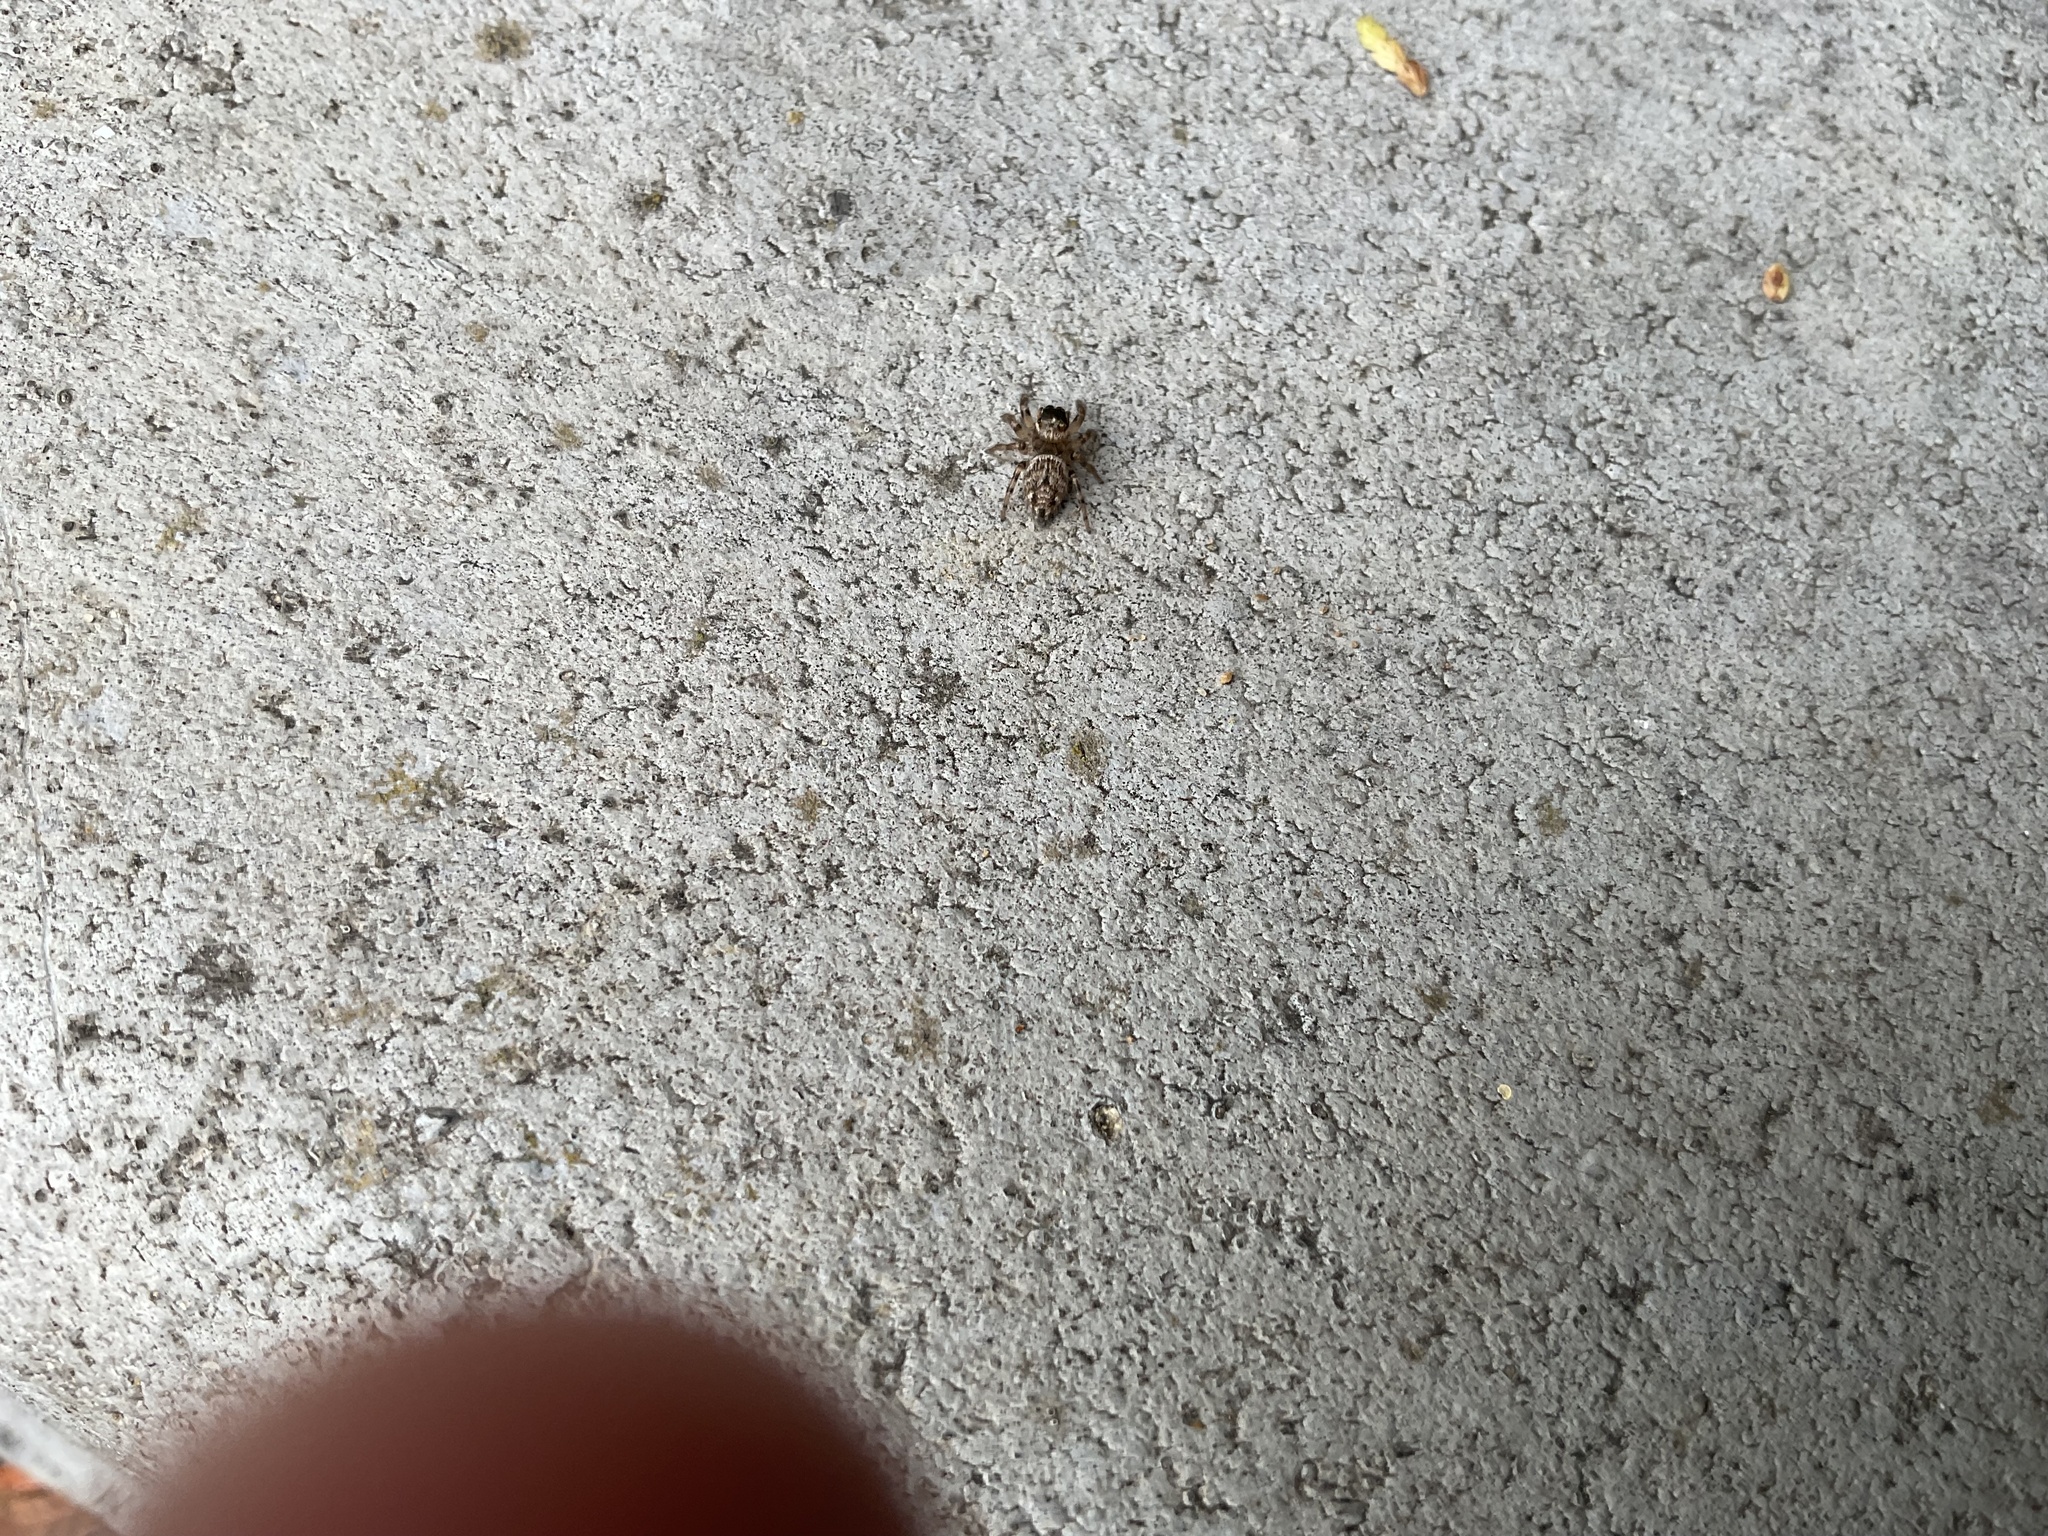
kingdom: Animalia
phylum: Arthropoda
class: Arachnida
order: Araneae
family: Salticidae
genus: Evarcha
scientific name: Evarcha jucunda
